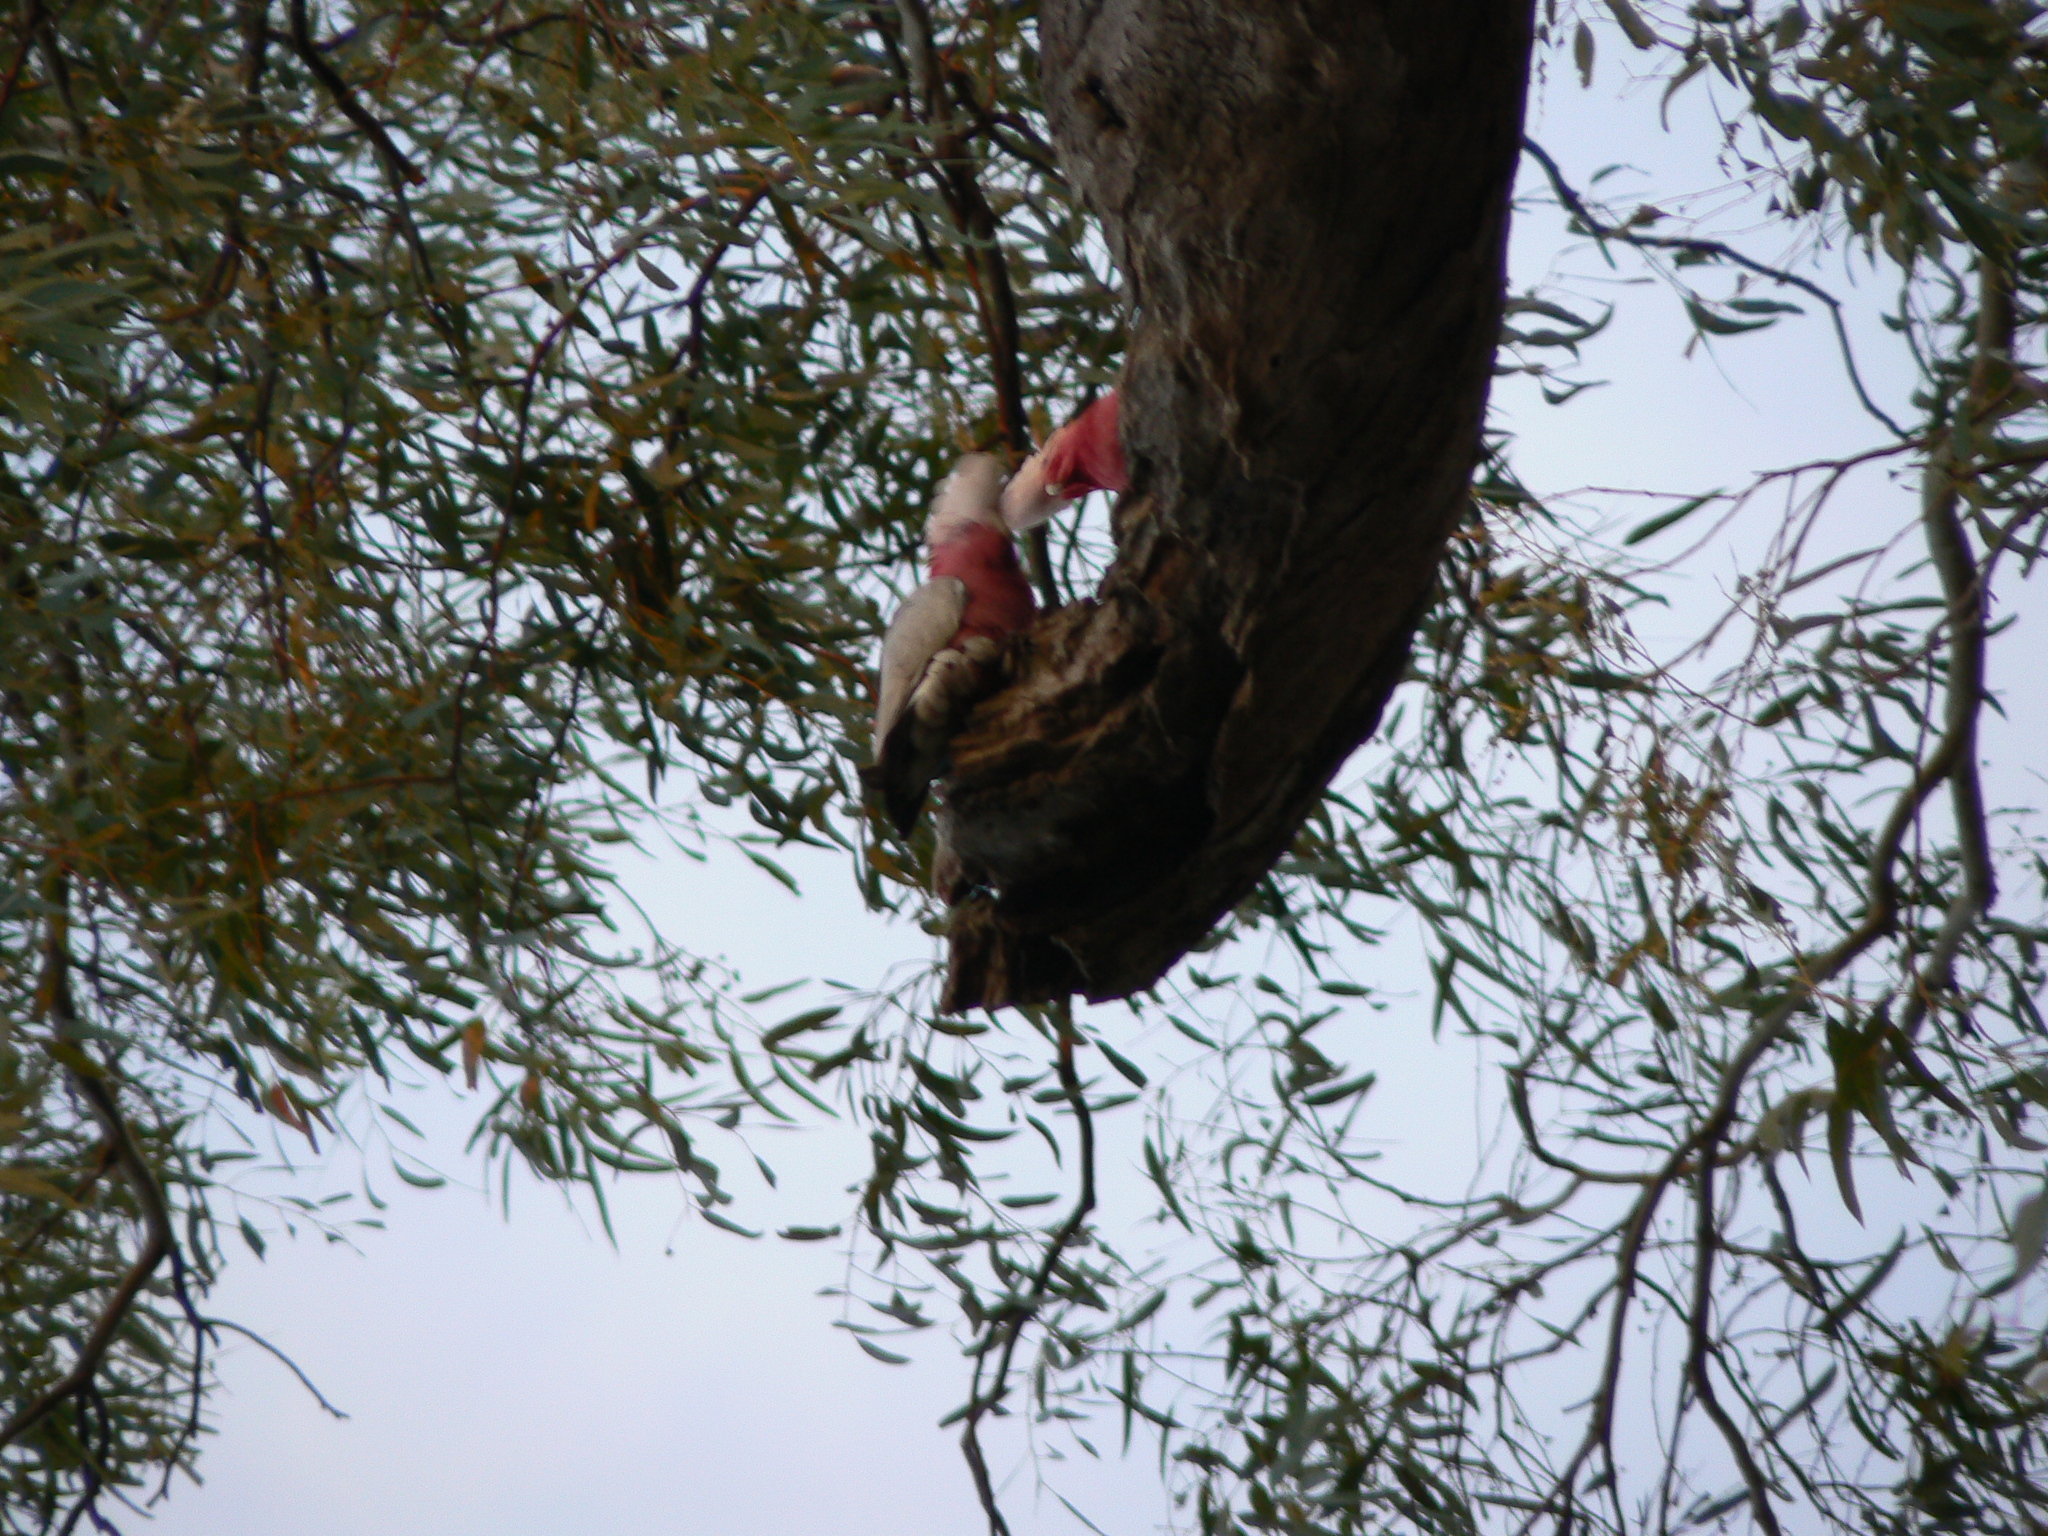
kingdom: Animalia
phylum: Chordata
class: Aves
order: Psittaciformes
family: Psittacidae
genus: Eolophus
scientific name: Eolophus roseicapilla
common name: Galah
